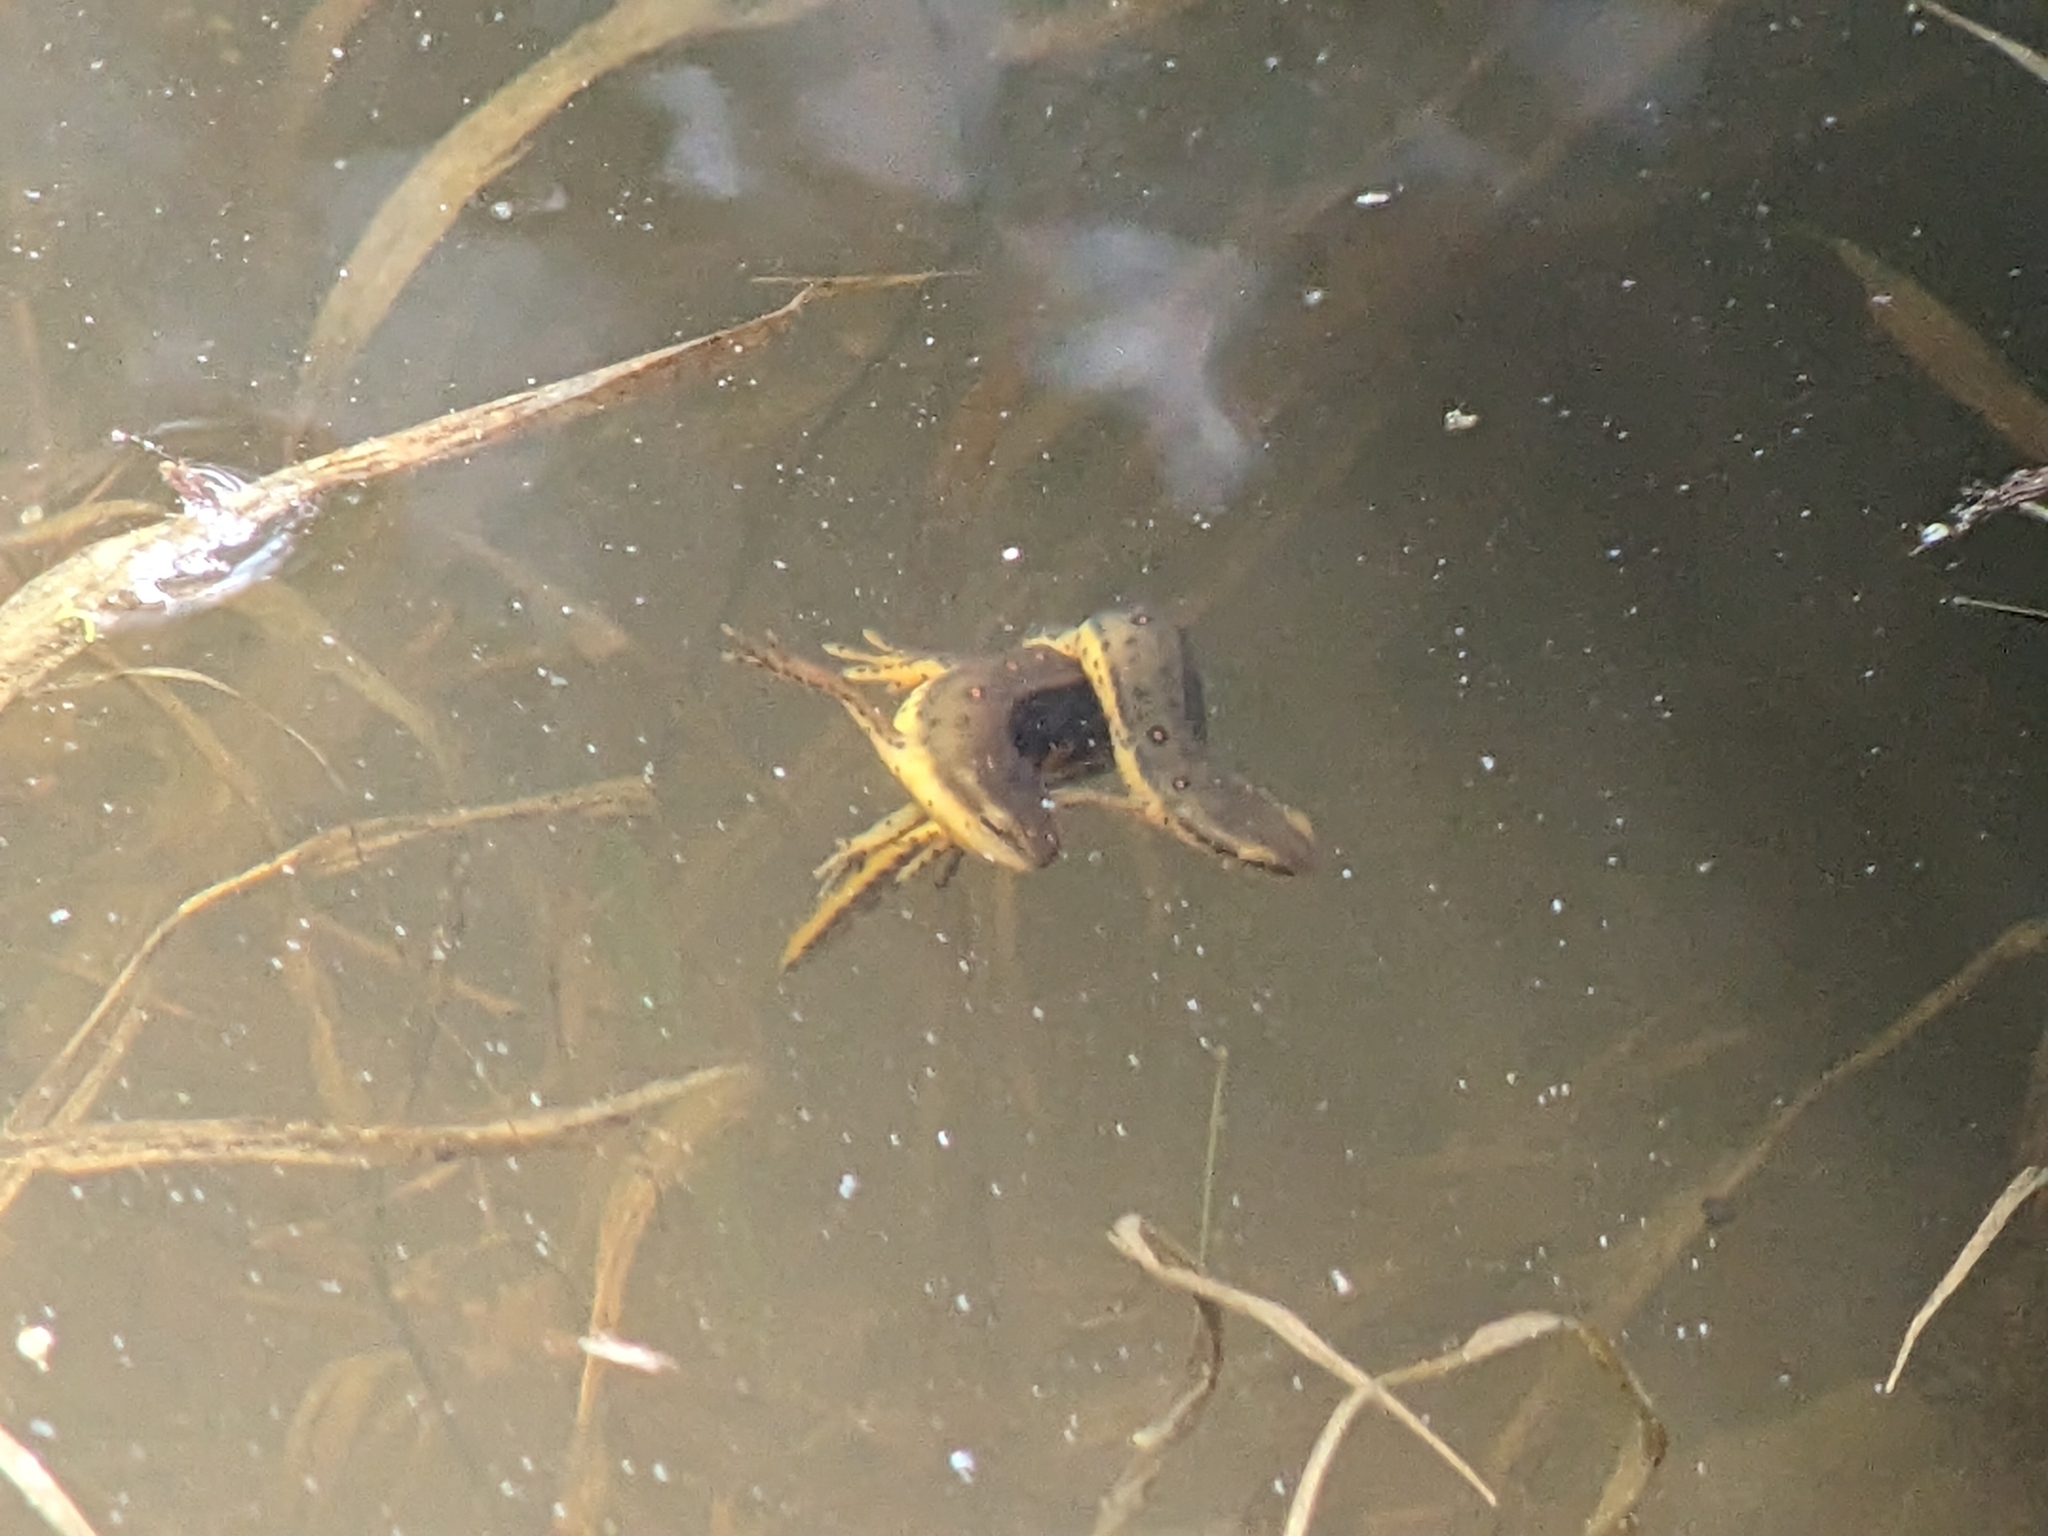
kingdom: Animalia
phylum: Chordata
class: Amphibia
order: Caudata
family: Salamandridae
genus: Notophthalmus
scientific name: Notophthalmus viridescens
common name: Eastern newt
